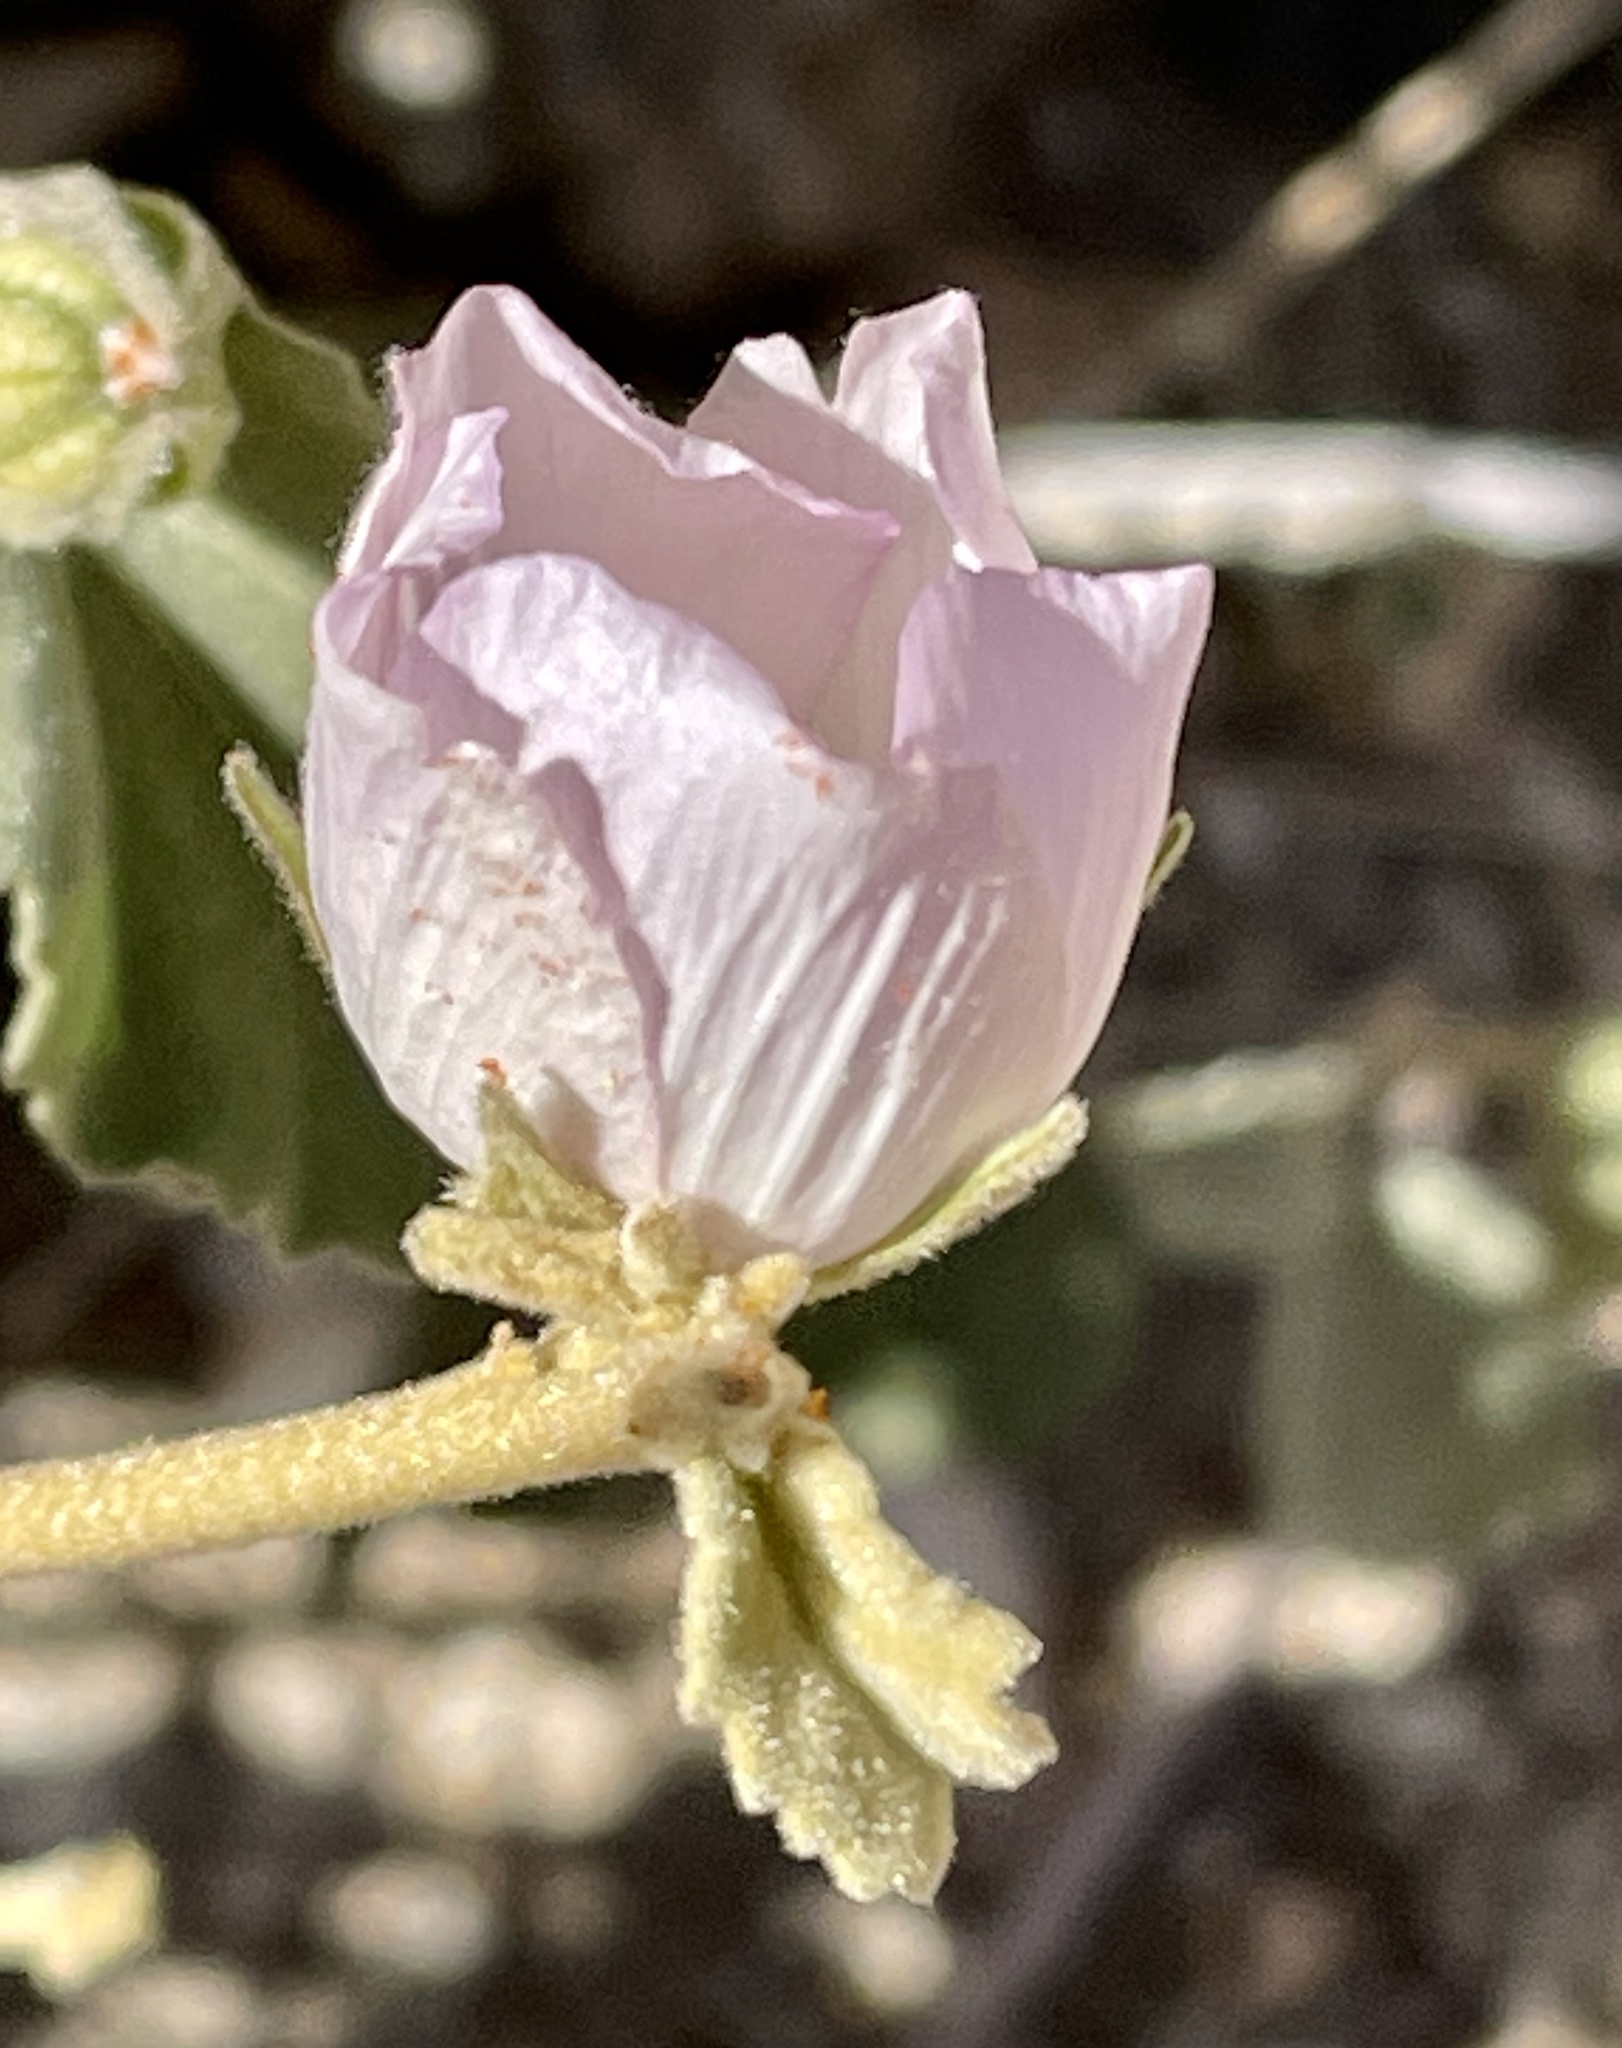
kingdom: Plantae
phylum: Tracheophyta
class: Magnoliopsida
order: Malvales
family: Malvaceae
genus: Hibiscus
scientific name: Hibiscus denudatus
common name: Paleface
